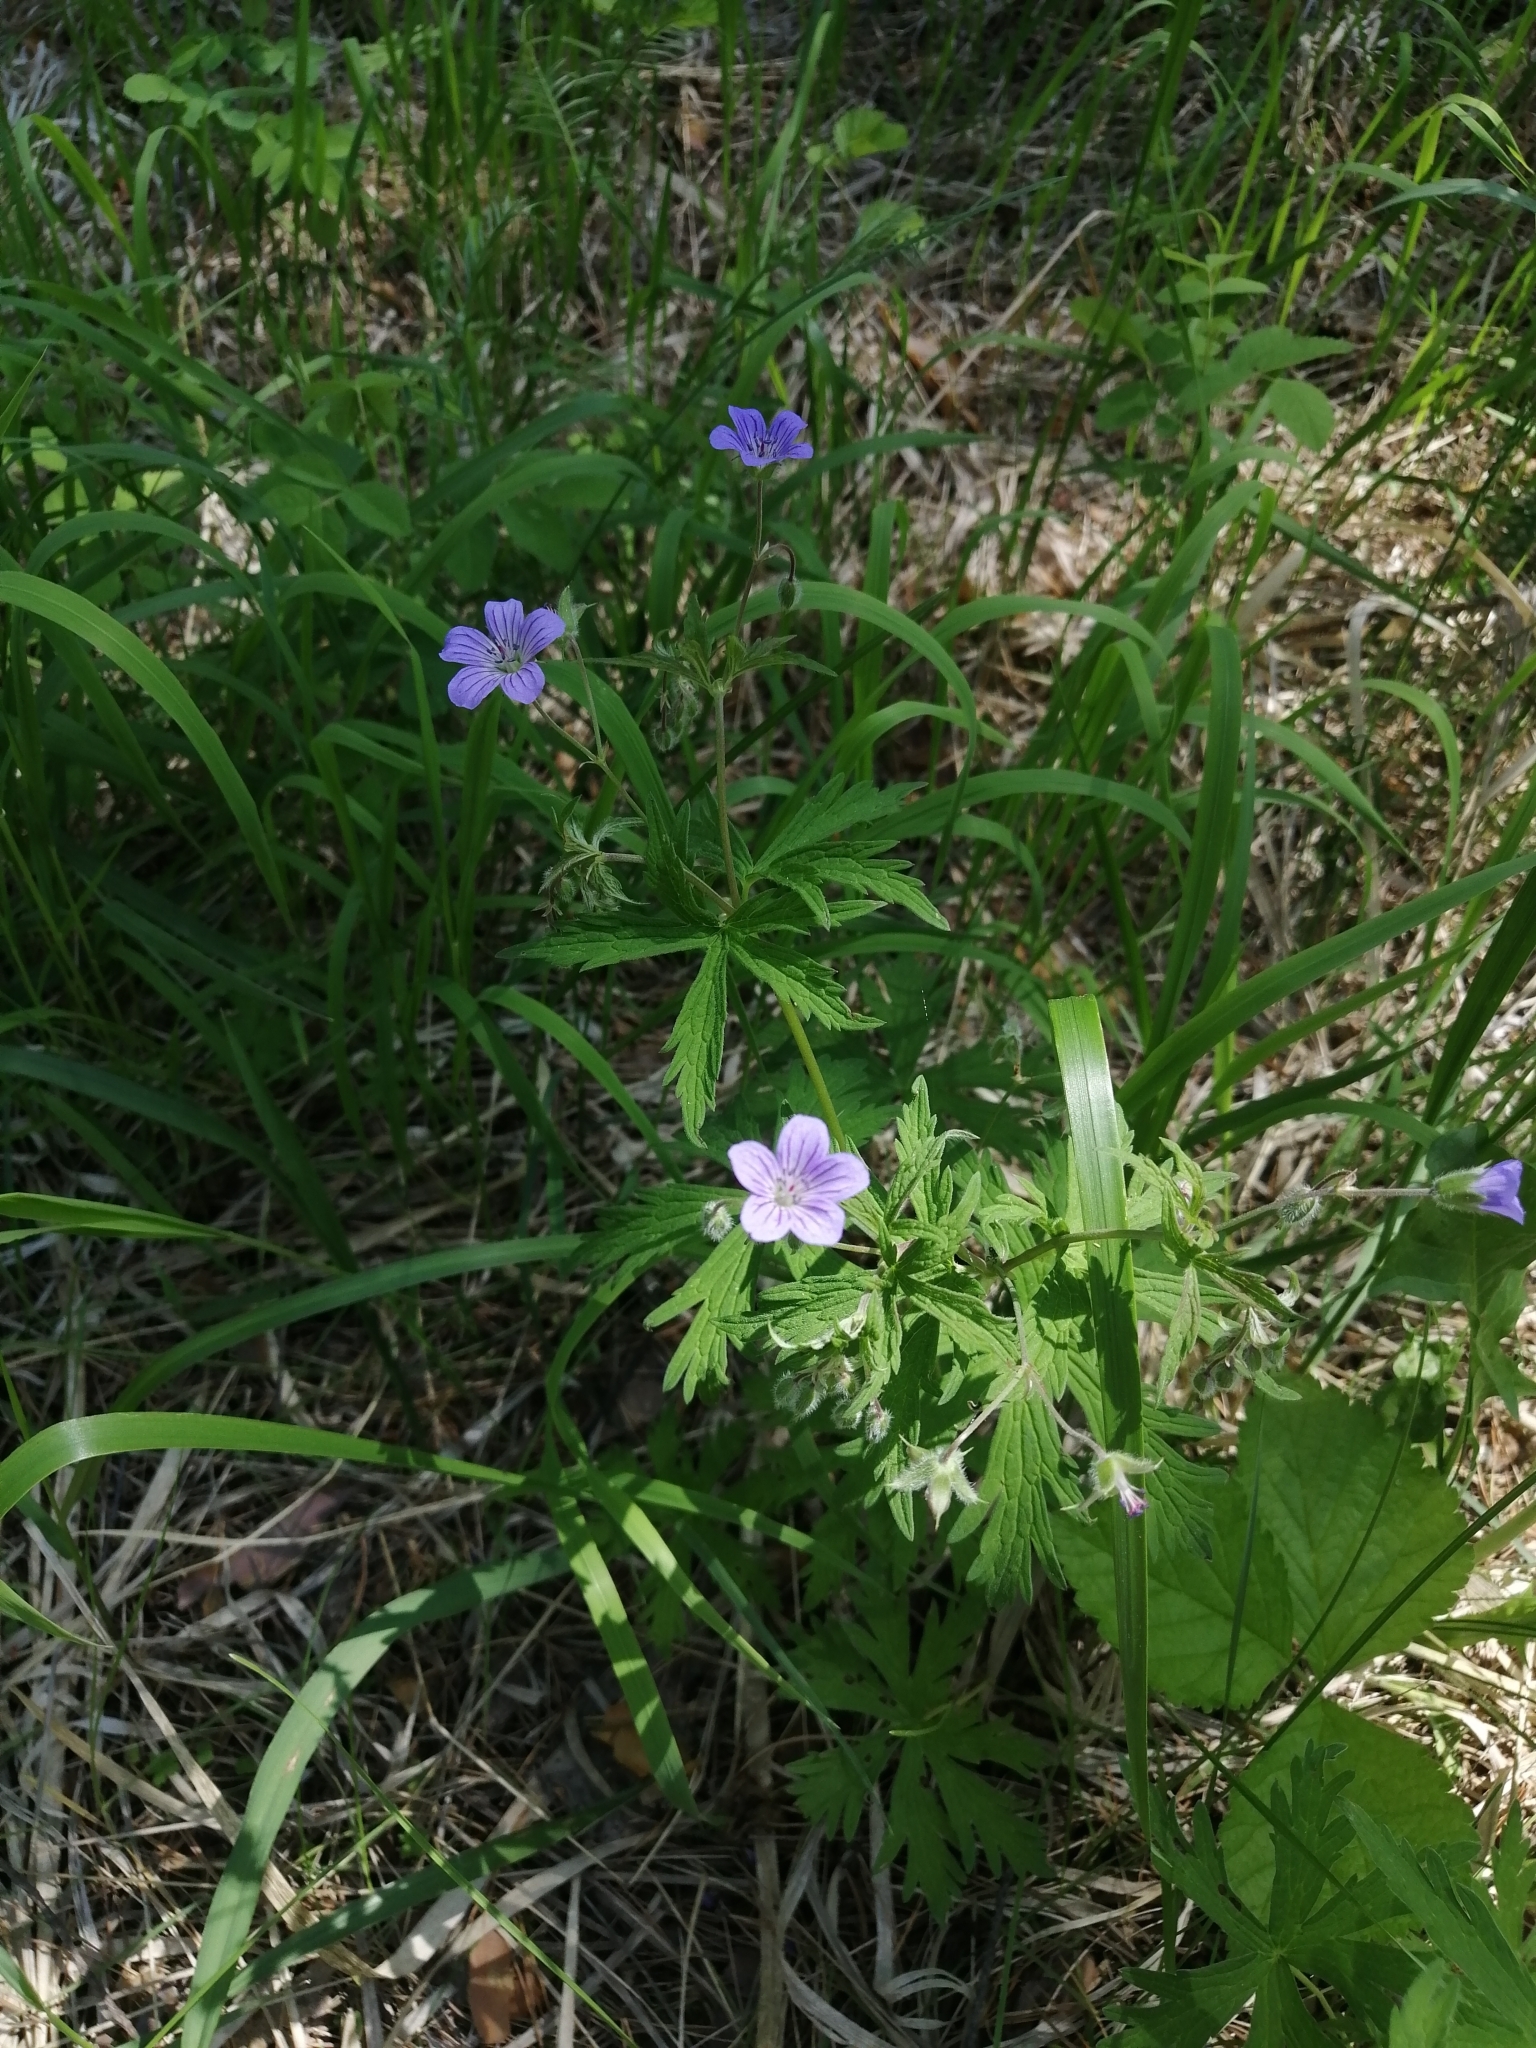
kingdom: Plantae
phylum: Tracheophyta
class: Magnoliopsida
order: Geraniales
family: Geraniaceae
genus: Geranium
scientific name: Geranium pseudosibiricum
